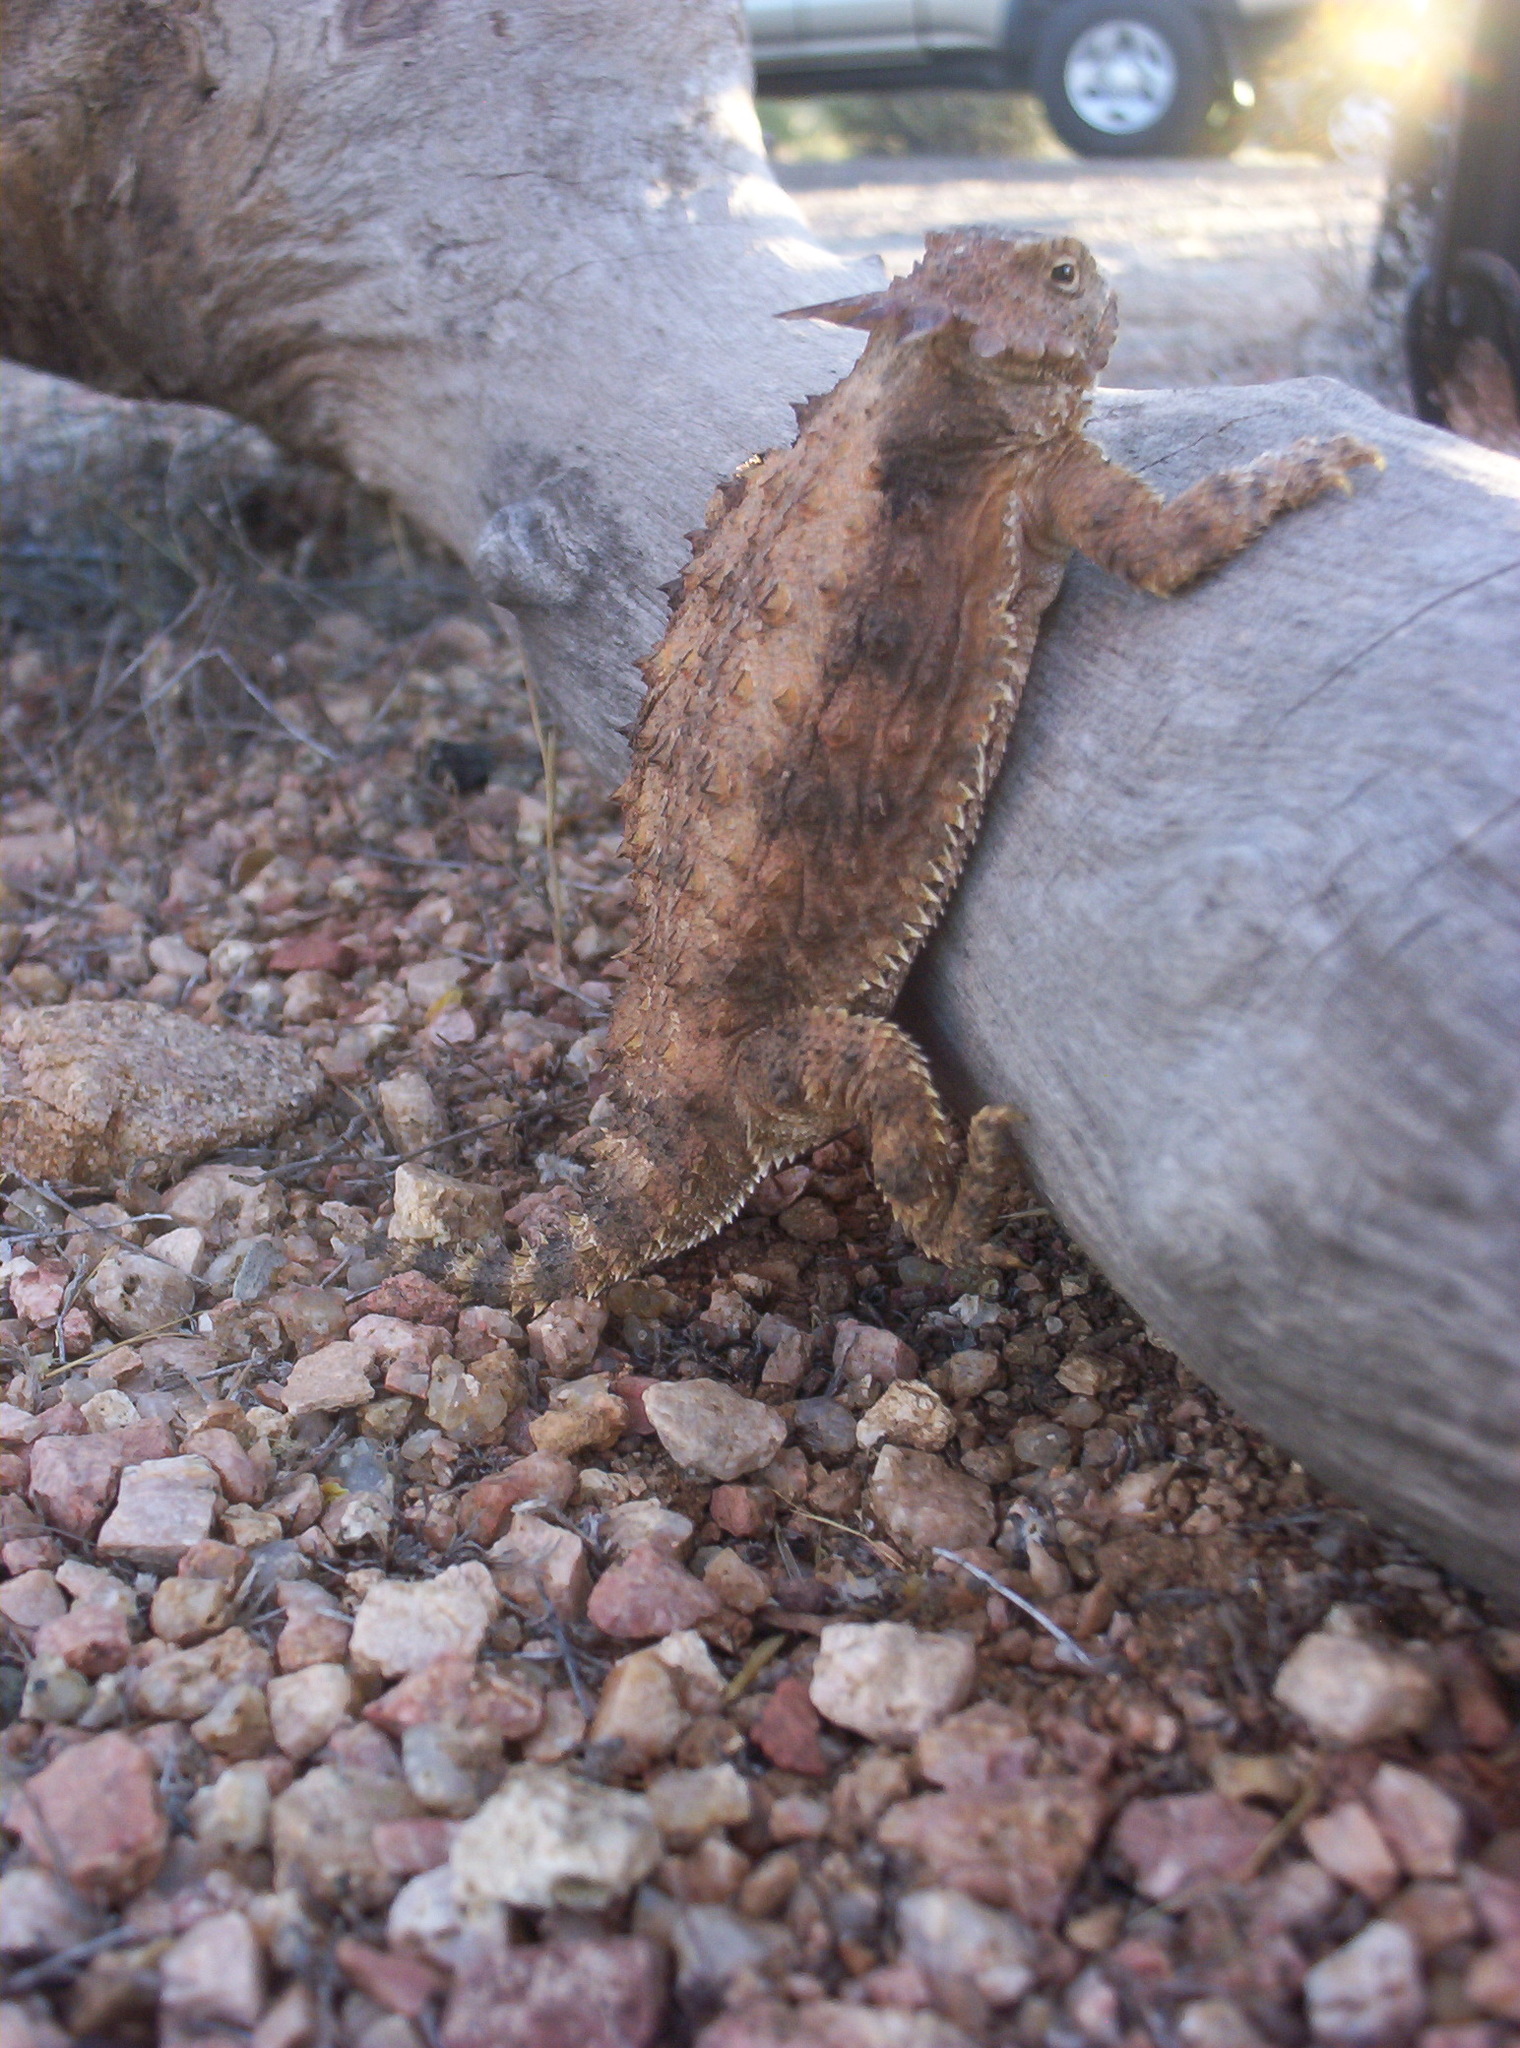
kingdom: Animalia
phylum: Chordata
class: Squamata
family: Phrynosomatidae
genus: Phrynosoma
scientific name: Phrynosoma solare
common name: Regal horned lizard
